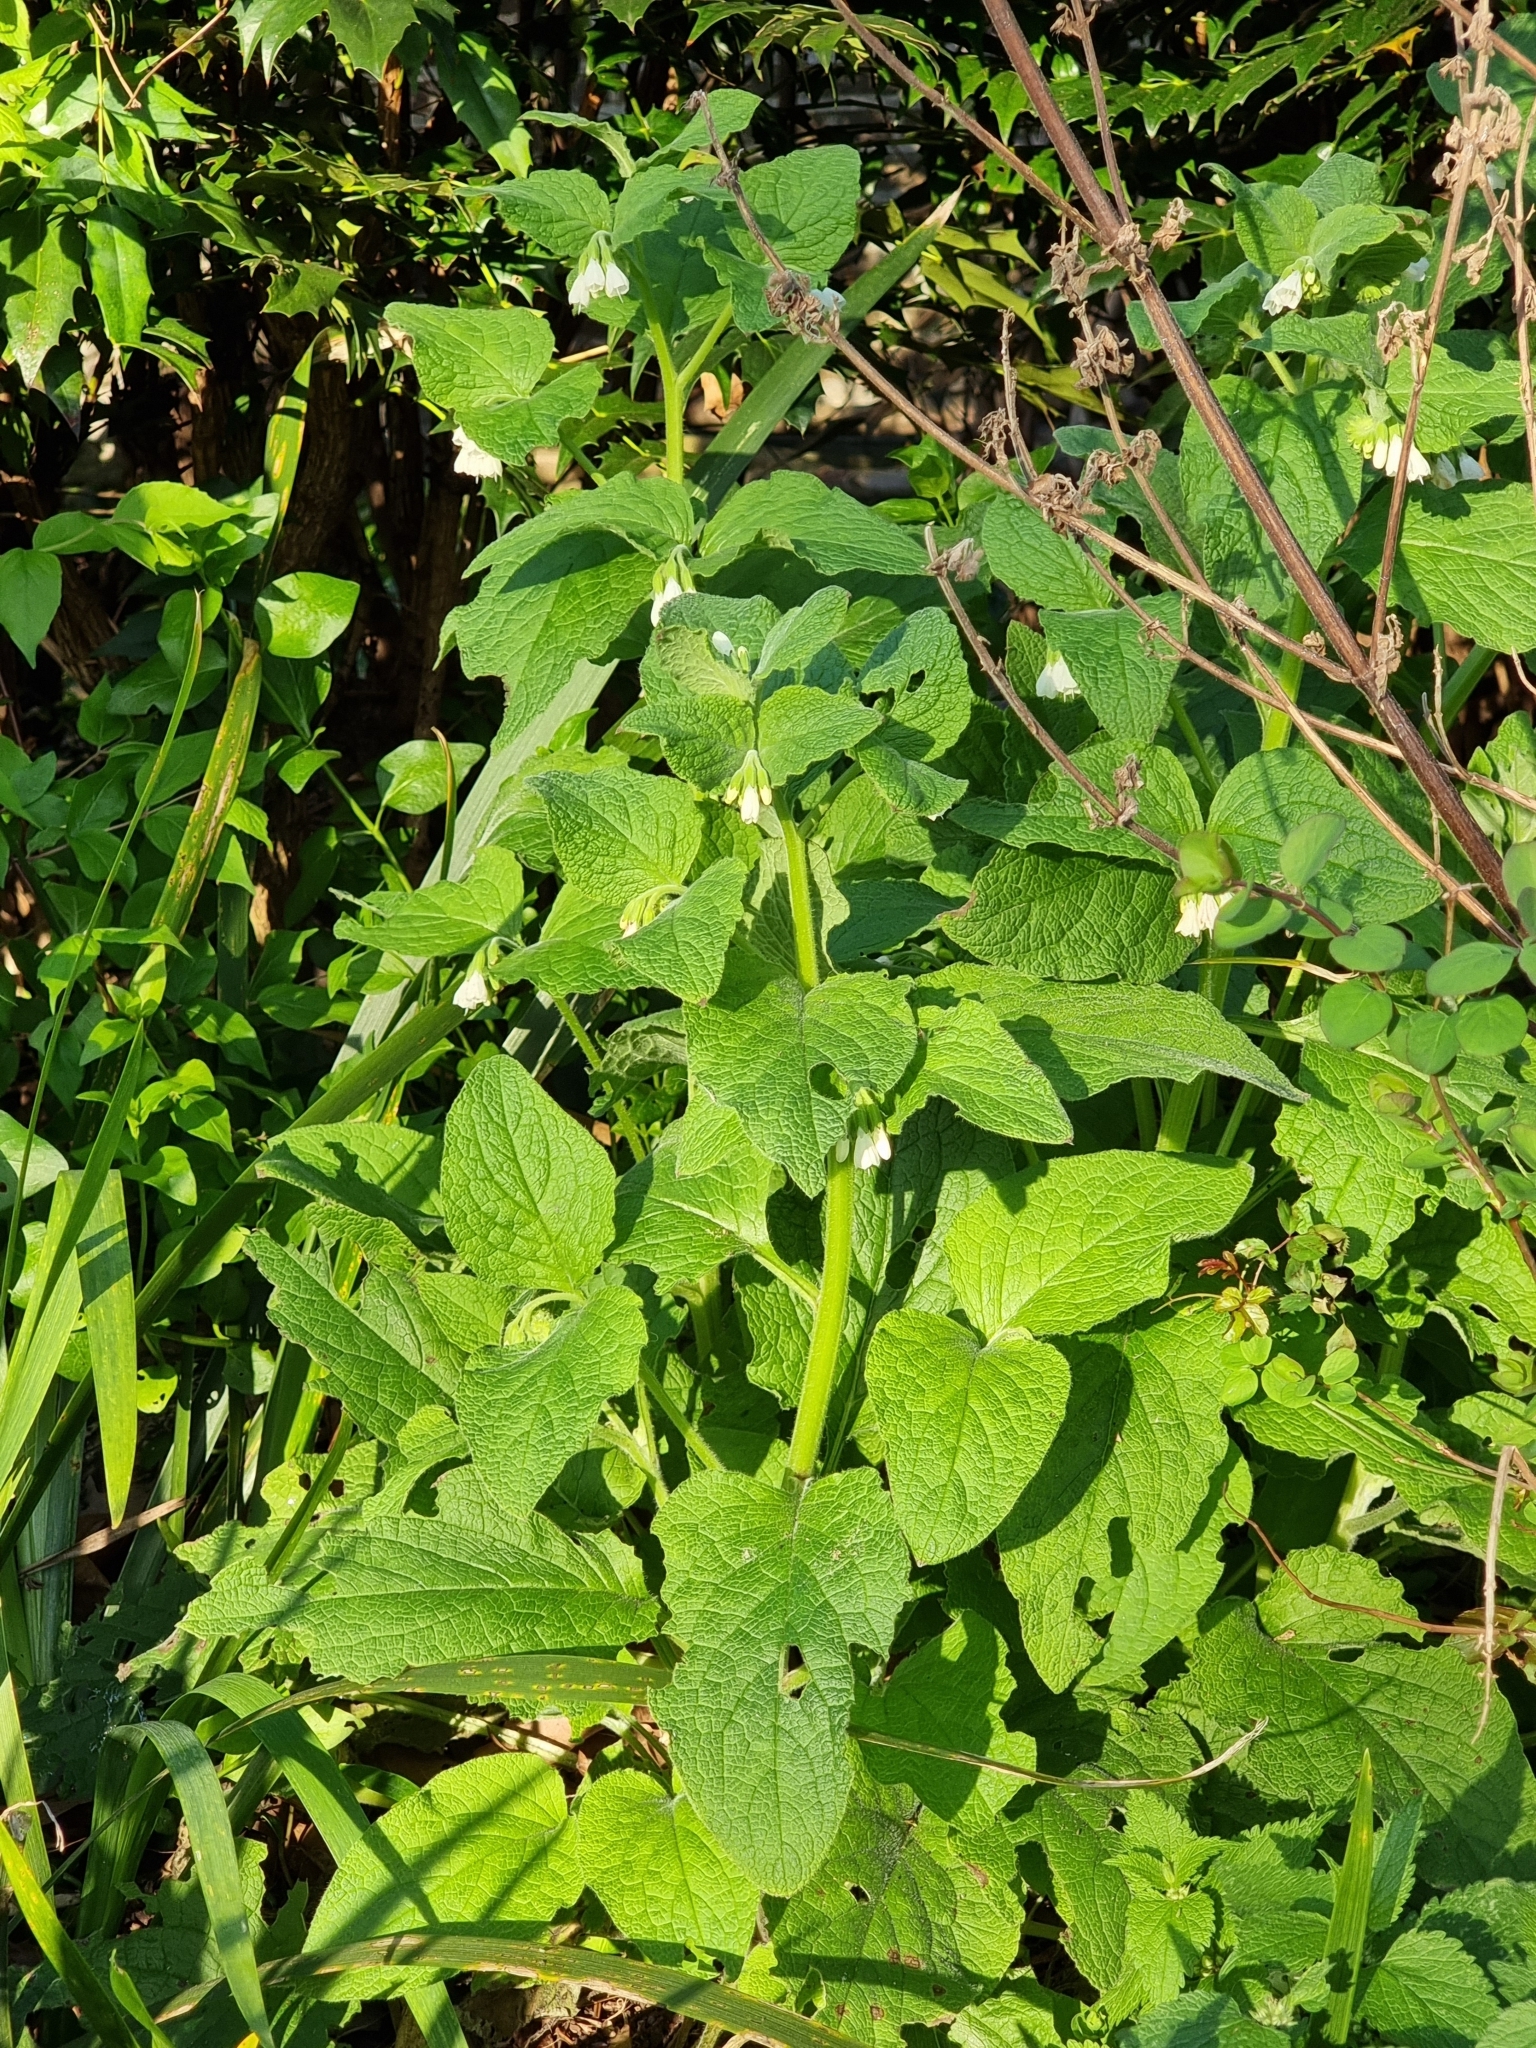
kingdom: Plantae
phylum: Tracheophyta
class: Magnoliopsida
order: Boraginales
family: Boraginaceae
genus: Symphytum
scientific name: Symphytum orientale
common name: White comfrey
